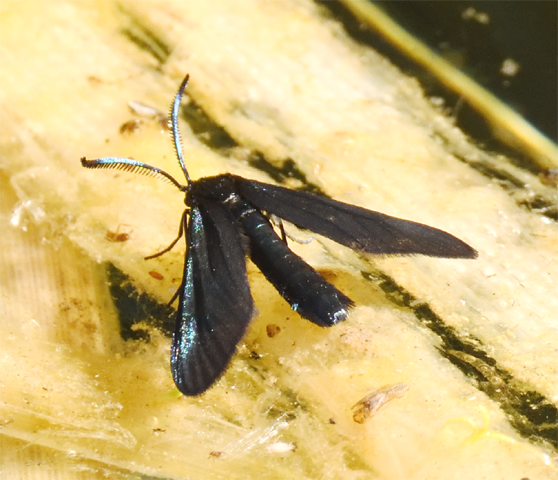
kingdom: Animalia
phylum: Arthropoda
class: Insecta
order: Lepidoptera
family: Zygaenidae
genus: Harrisina
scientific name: Harrisina metallica
